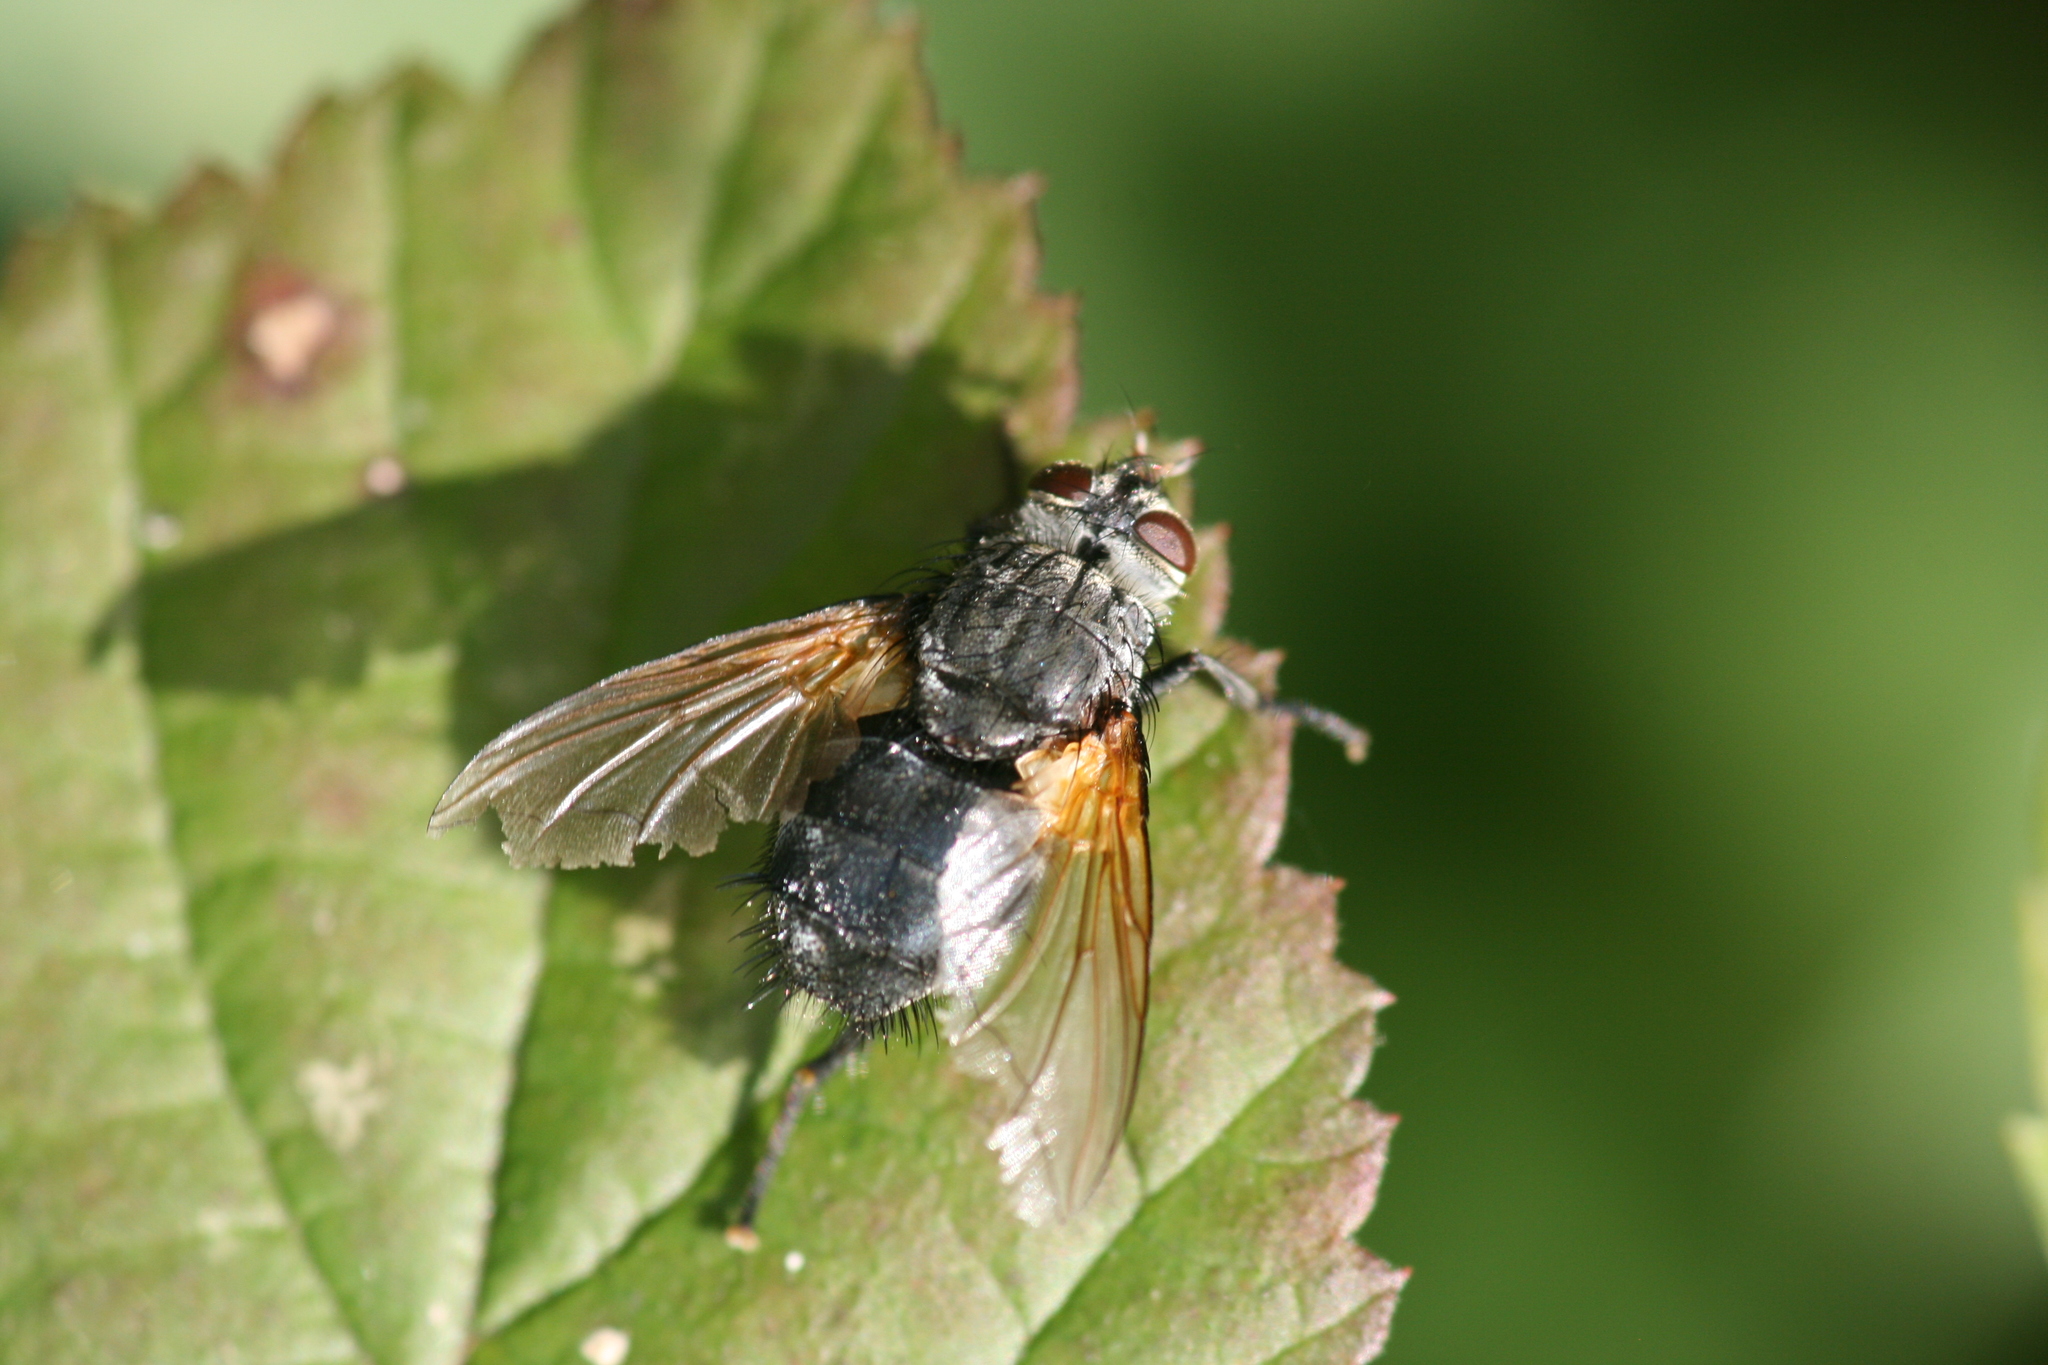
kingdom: Animalia
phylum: Arthropoda
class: Insecta
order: Diptera
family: Tachinidae
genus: Nemoraea
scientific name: Nemoraea pellucida
